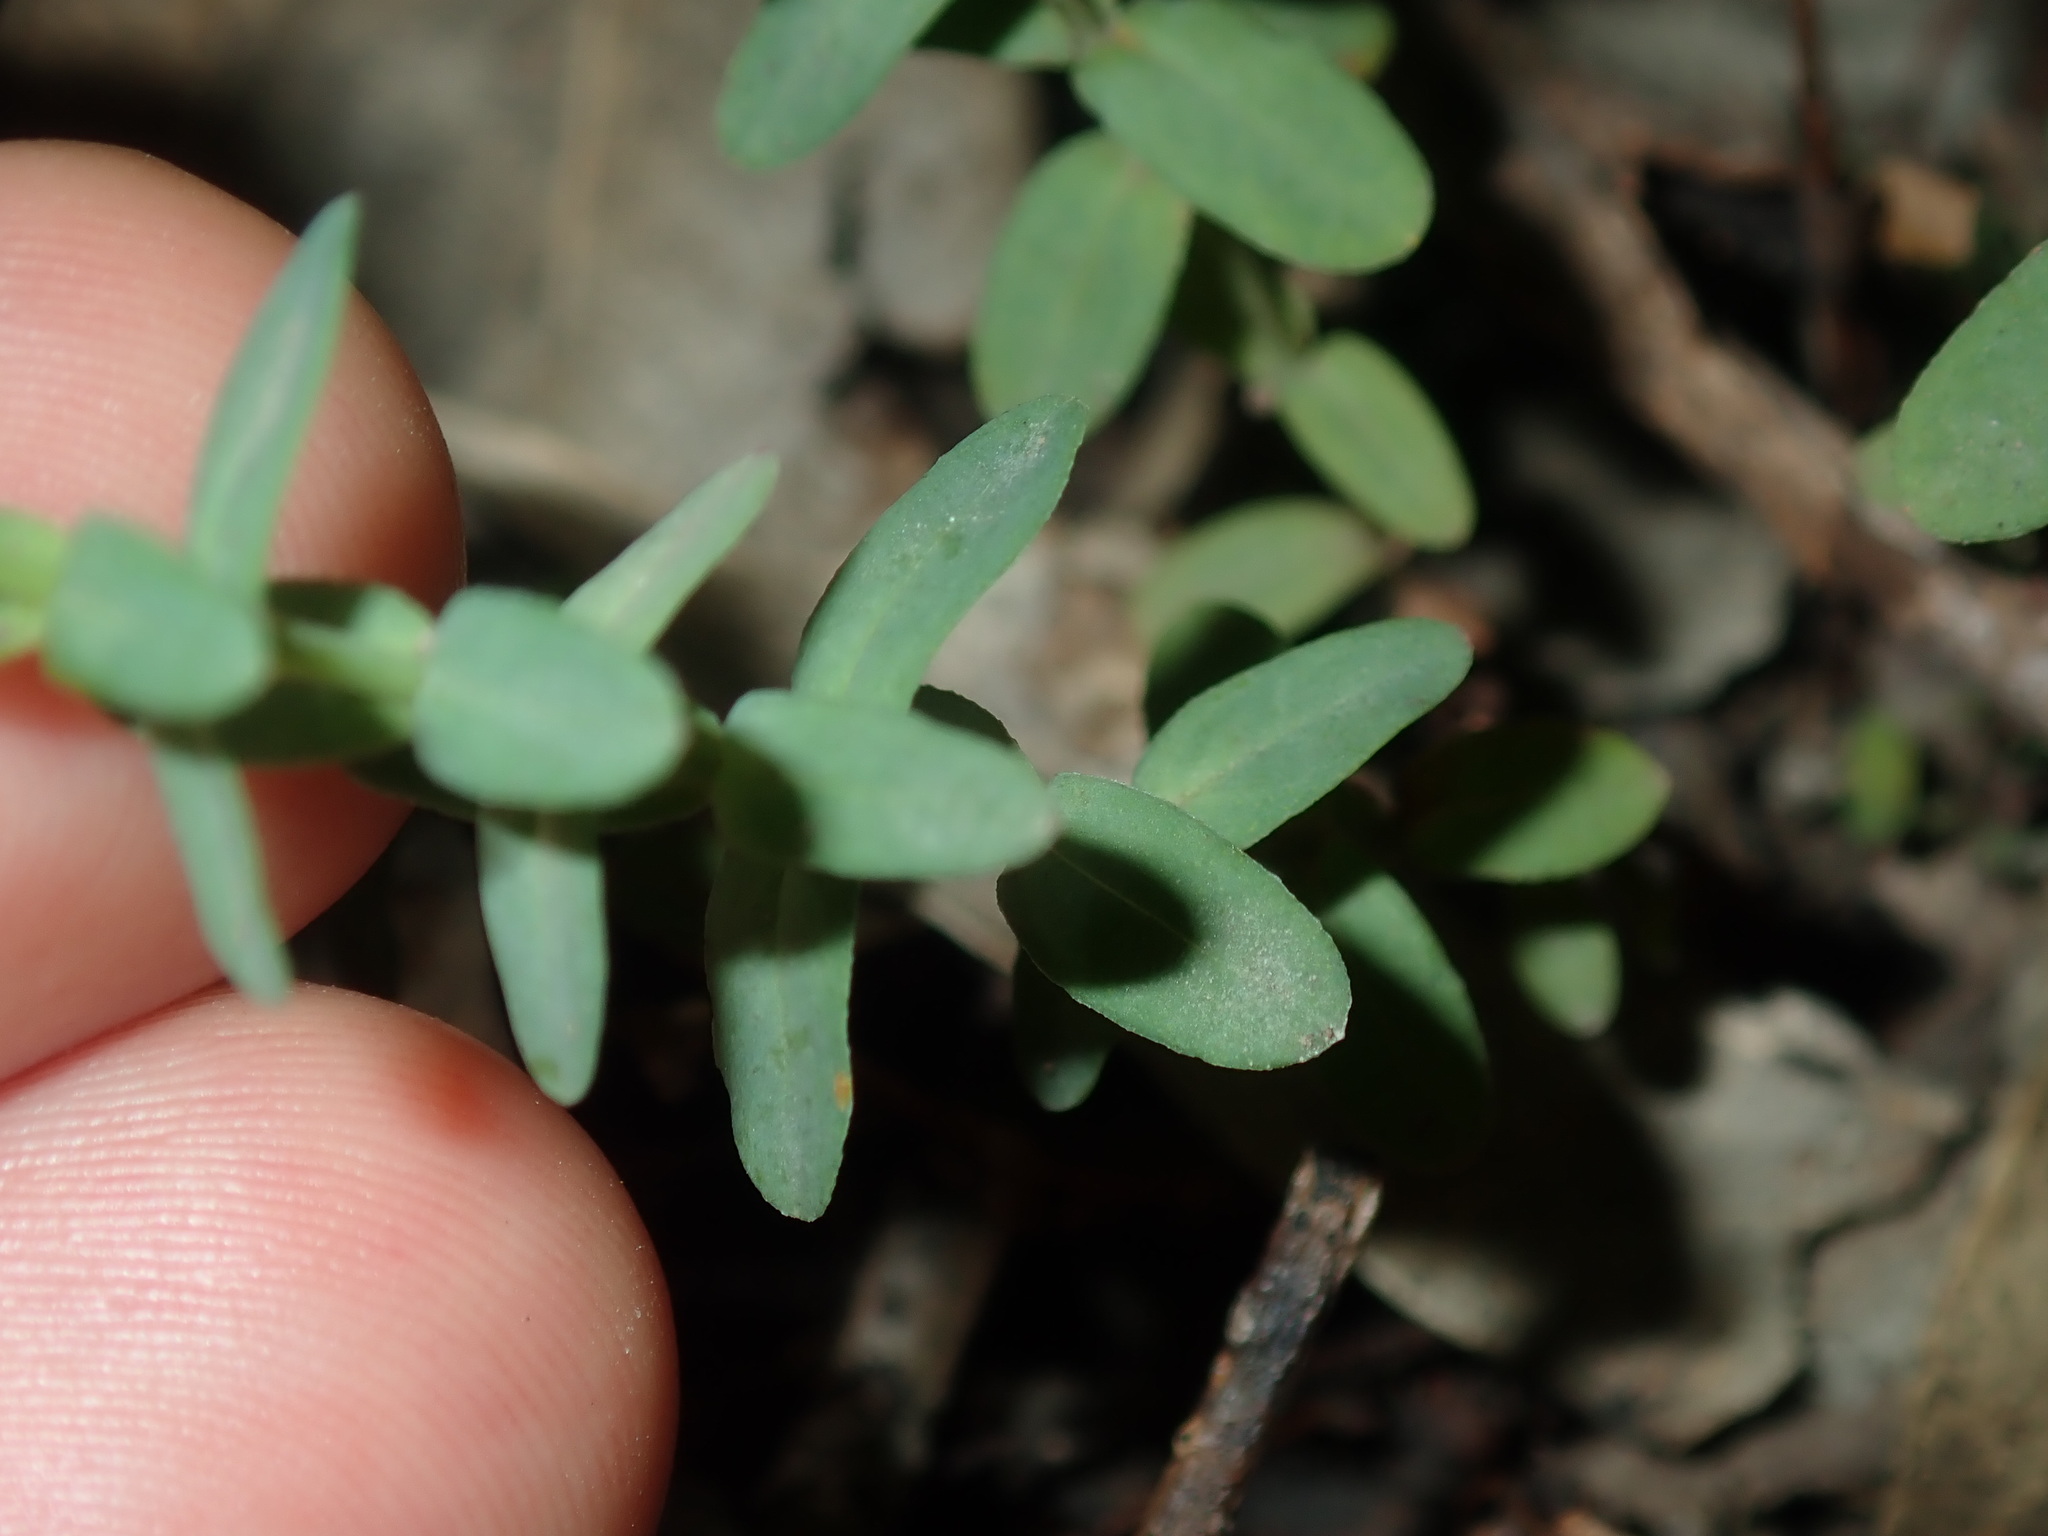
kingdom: Plantae
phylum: Tracheophyta
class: Magnoliopsida
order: Malpighiales
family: Hypericaceae
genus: Hypericum
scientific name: Hypericum gramineum
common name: Grassy st. johnswort
